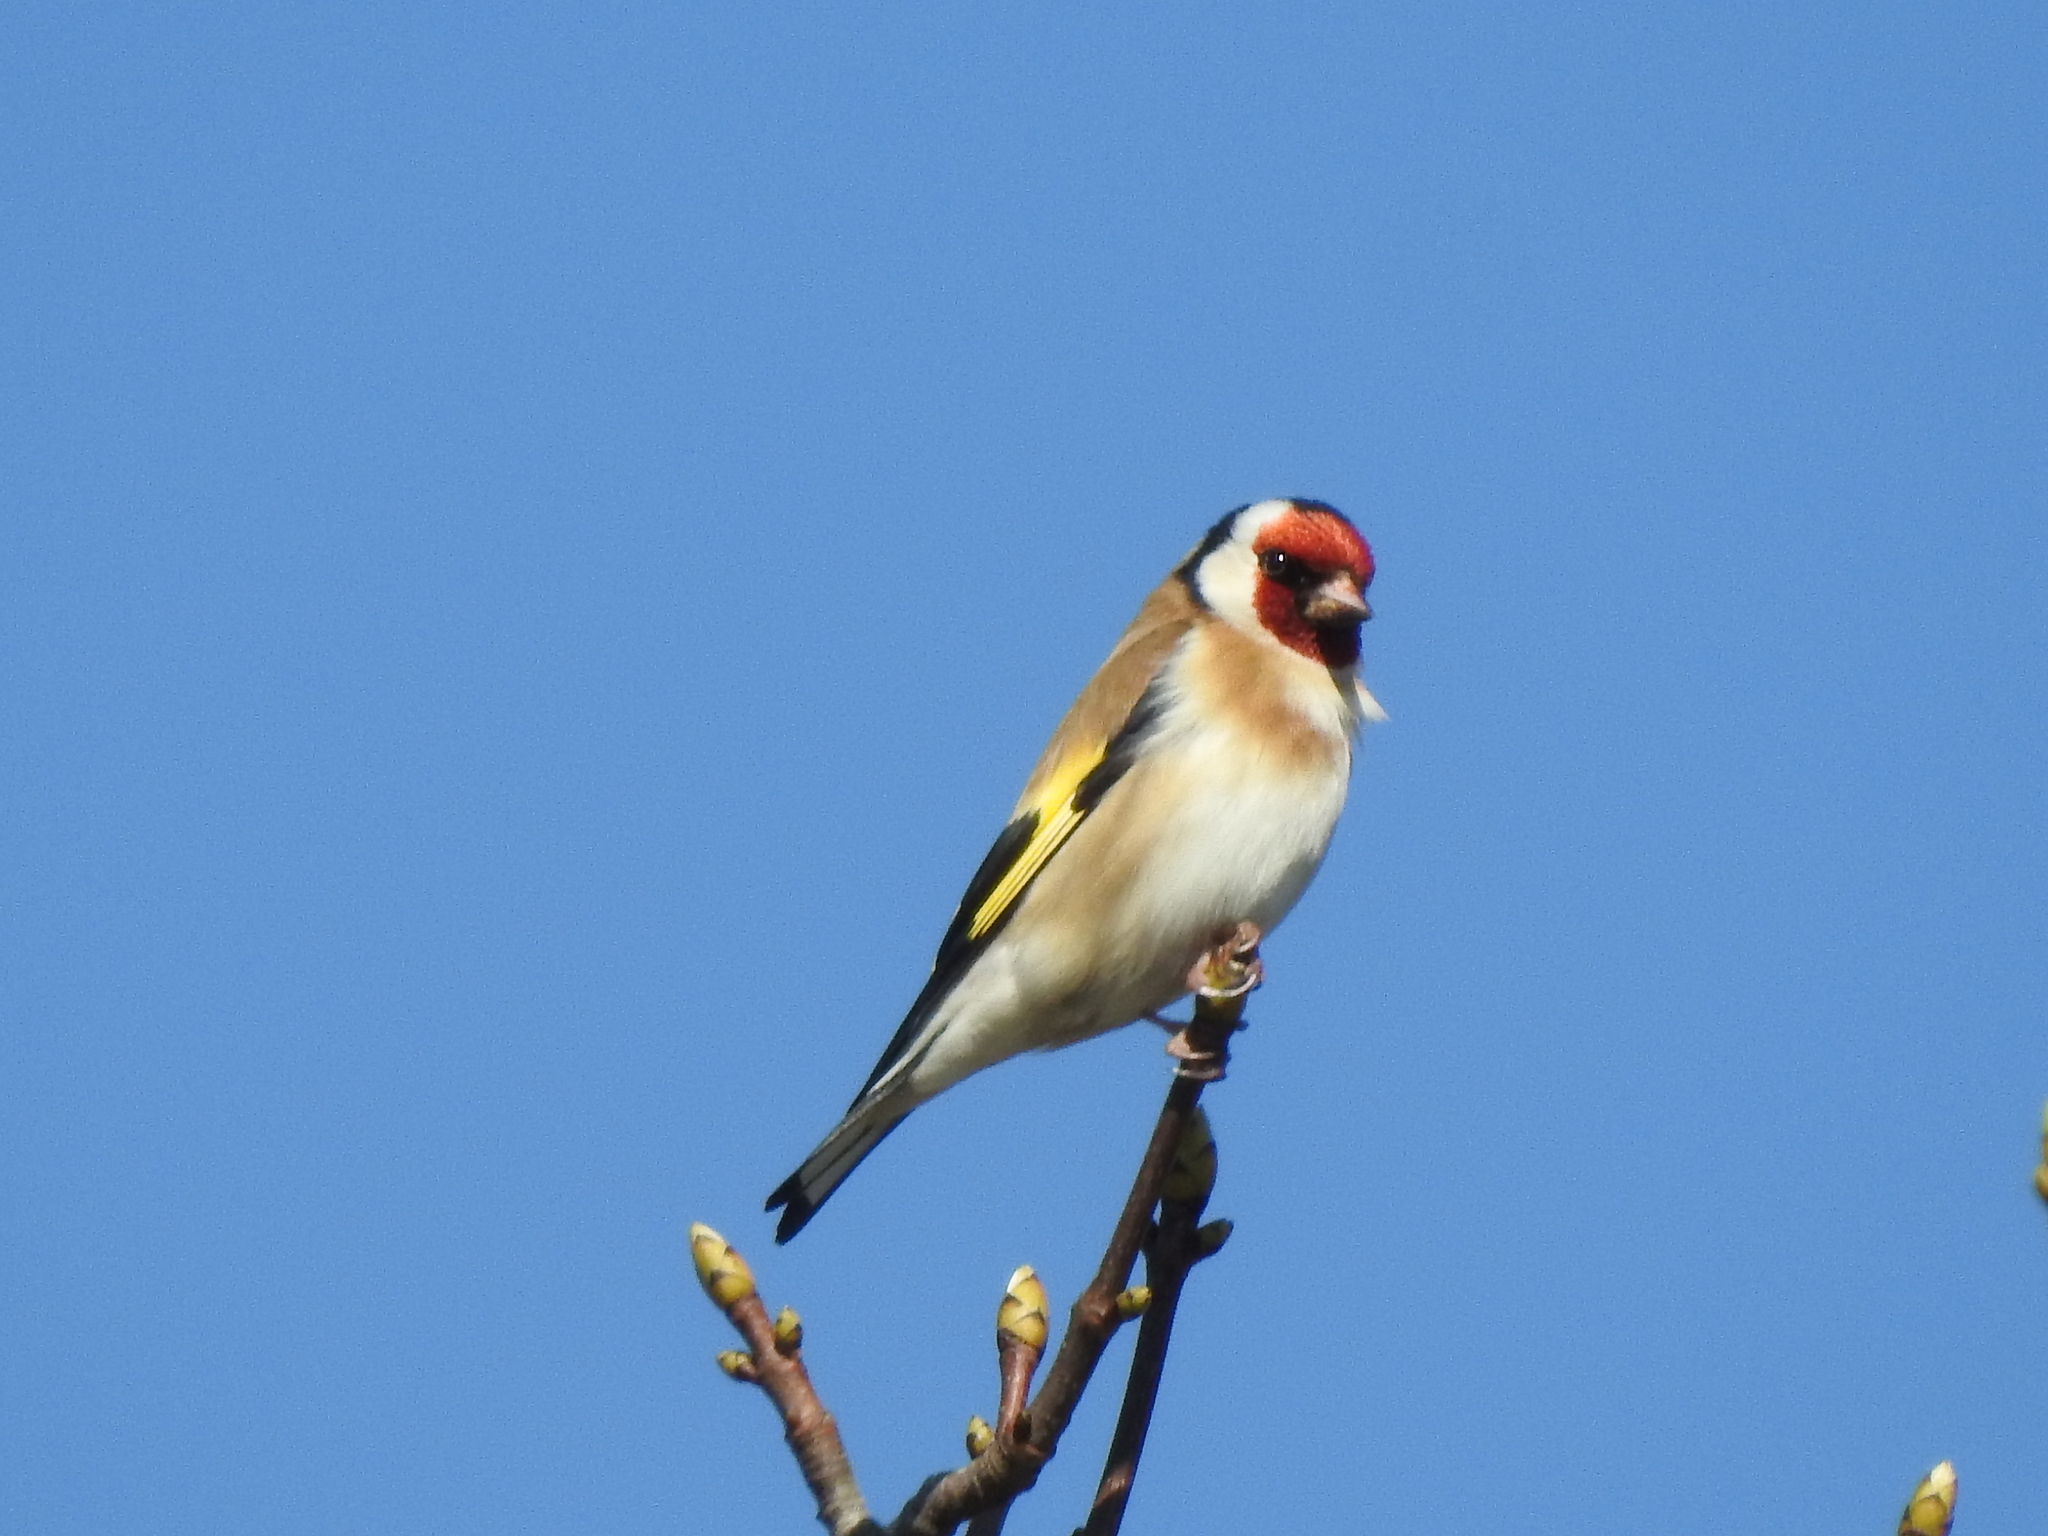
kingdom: Animalia
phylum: Chordata
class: Aves
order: Passeriformes
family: Fringillidae
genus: Carduelis
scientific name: Carduelis carduelis
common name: European goldfinch
